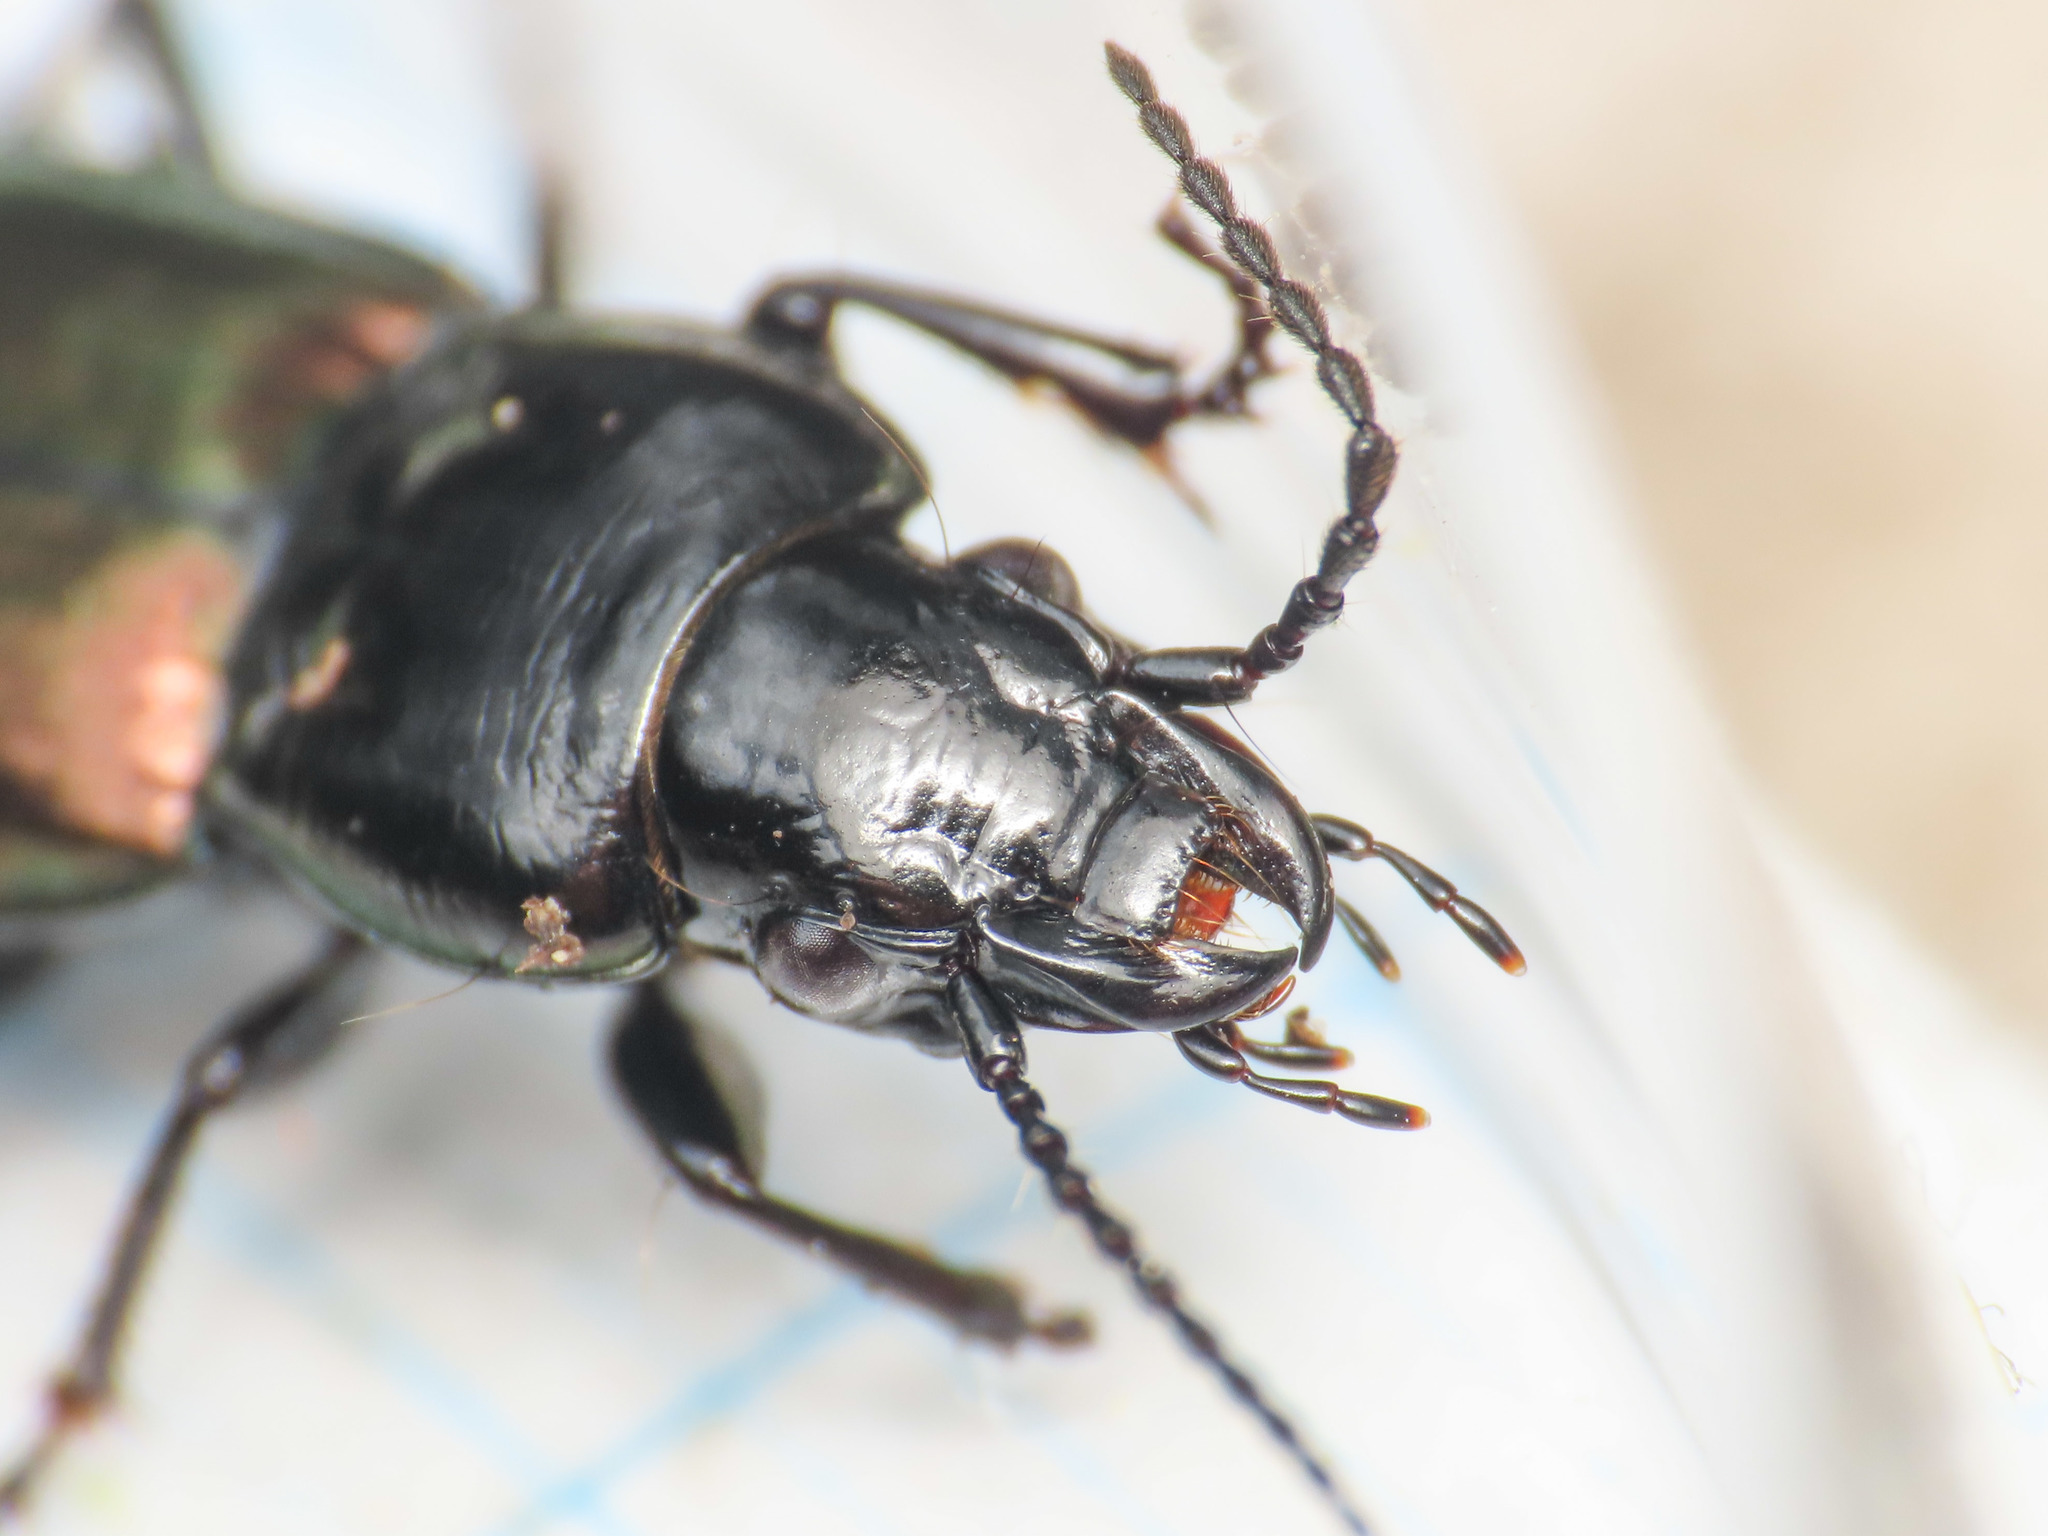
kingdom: Animalia
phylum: Arthropoda
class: Insecta
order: Coleoptera
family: Carabidae
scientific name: Carabidae
